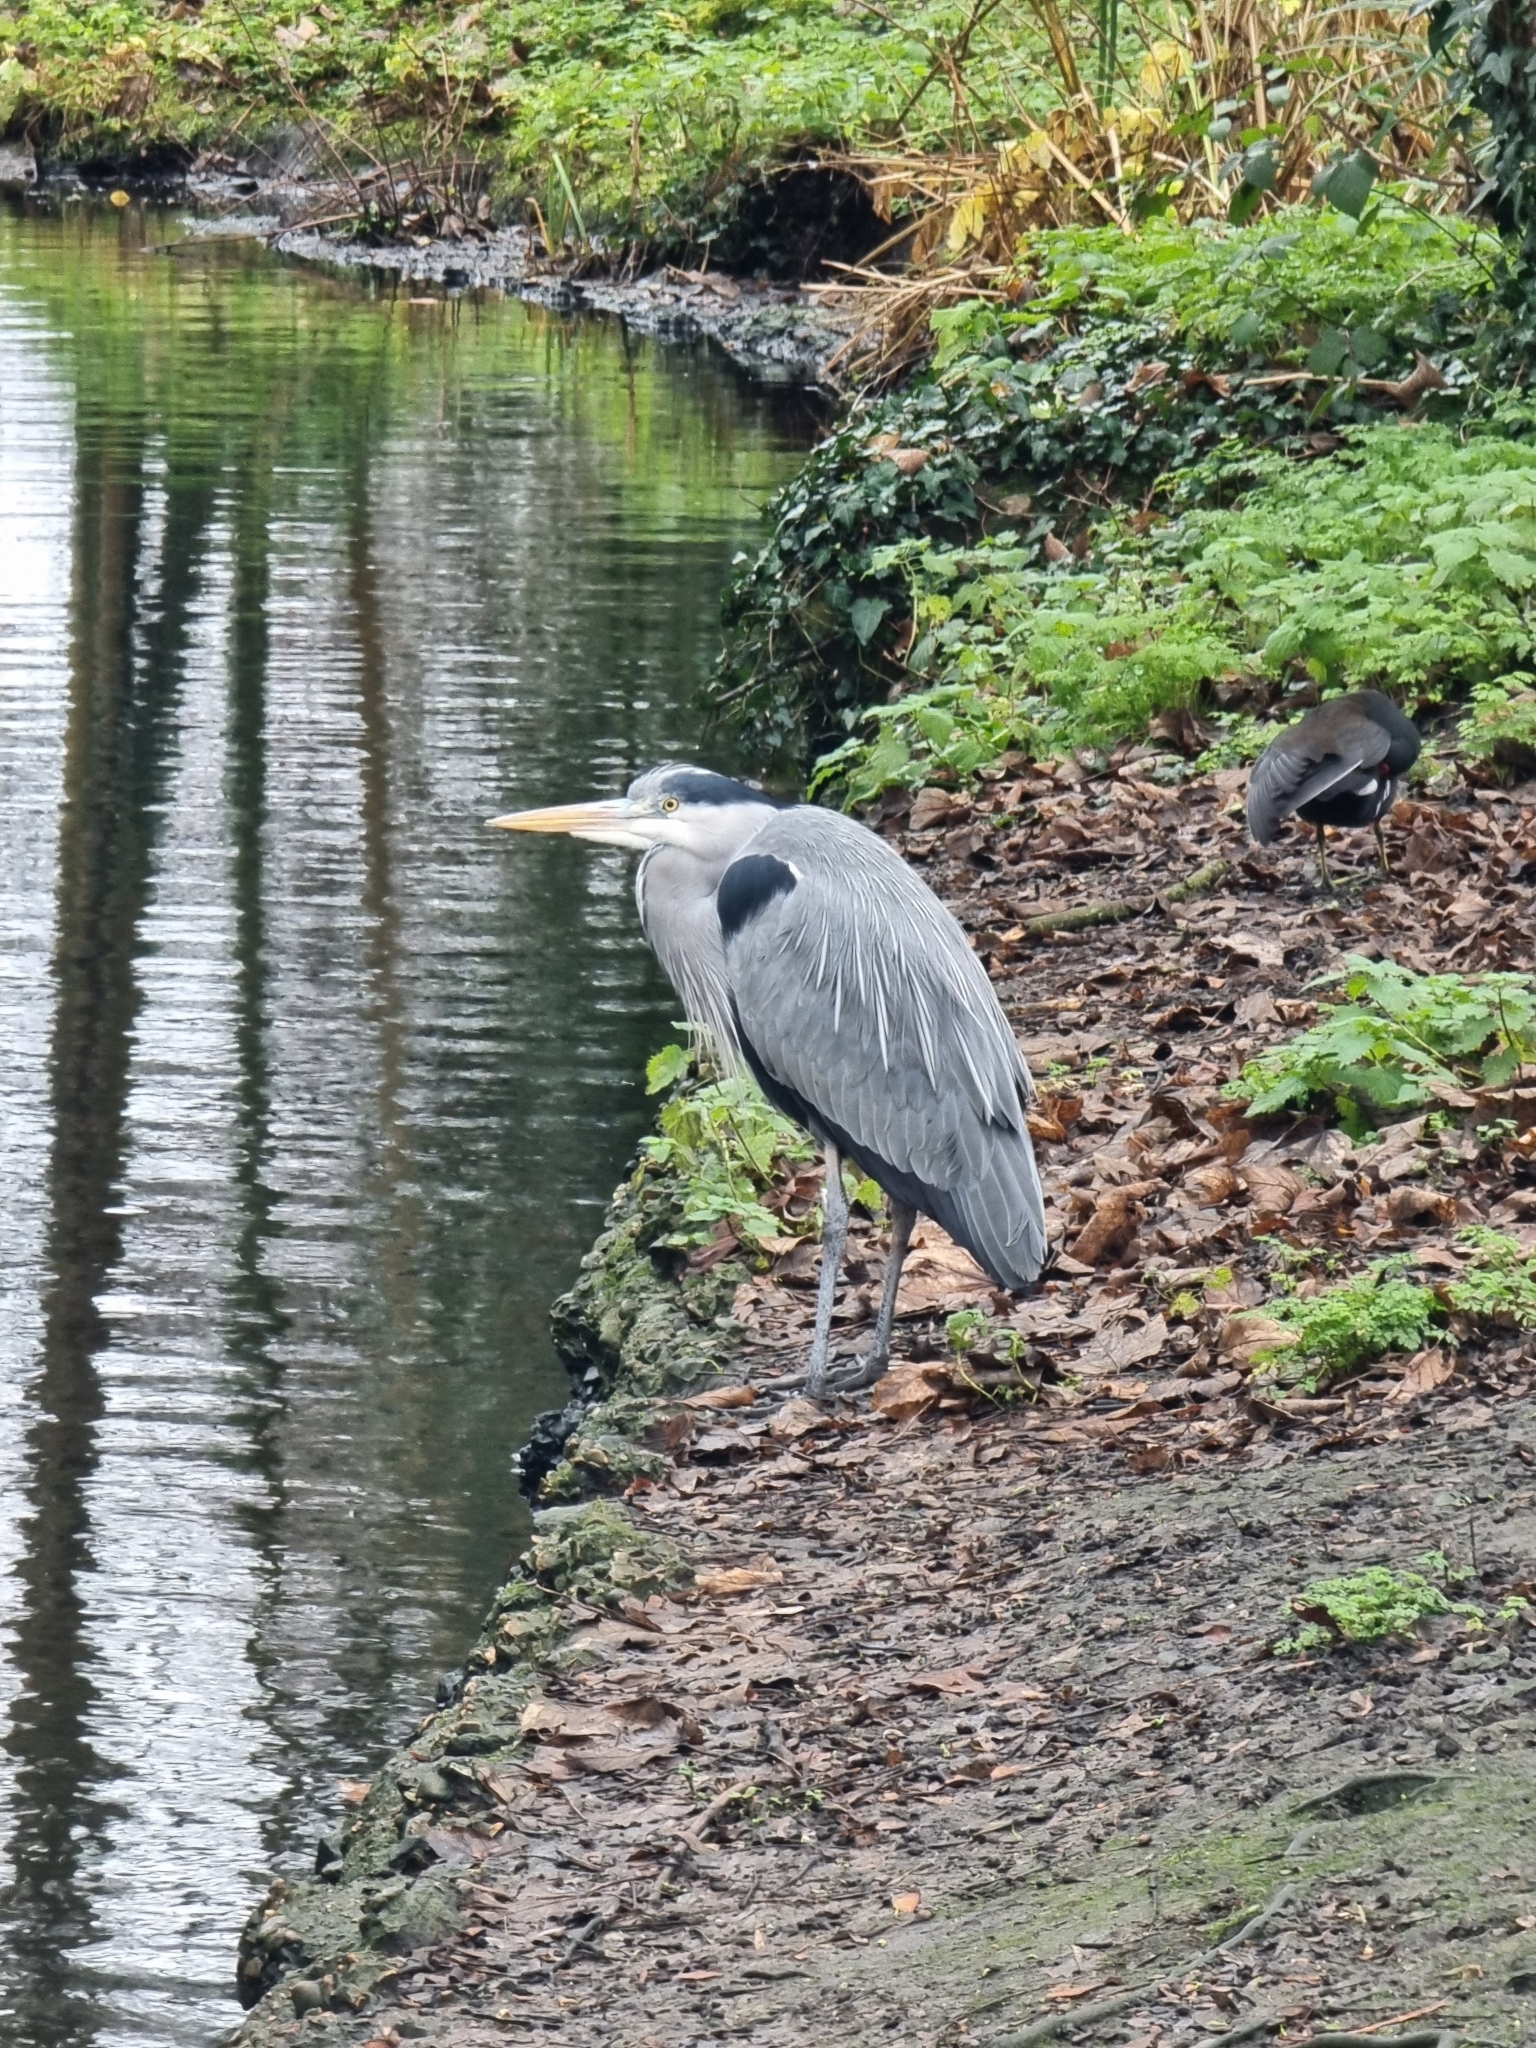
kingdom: Animalia
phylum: Chordata
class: Aves
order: Pelecaniformes
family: Ardeidae
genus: Ardea
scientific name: Ardea cinerea
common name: Grey heron
